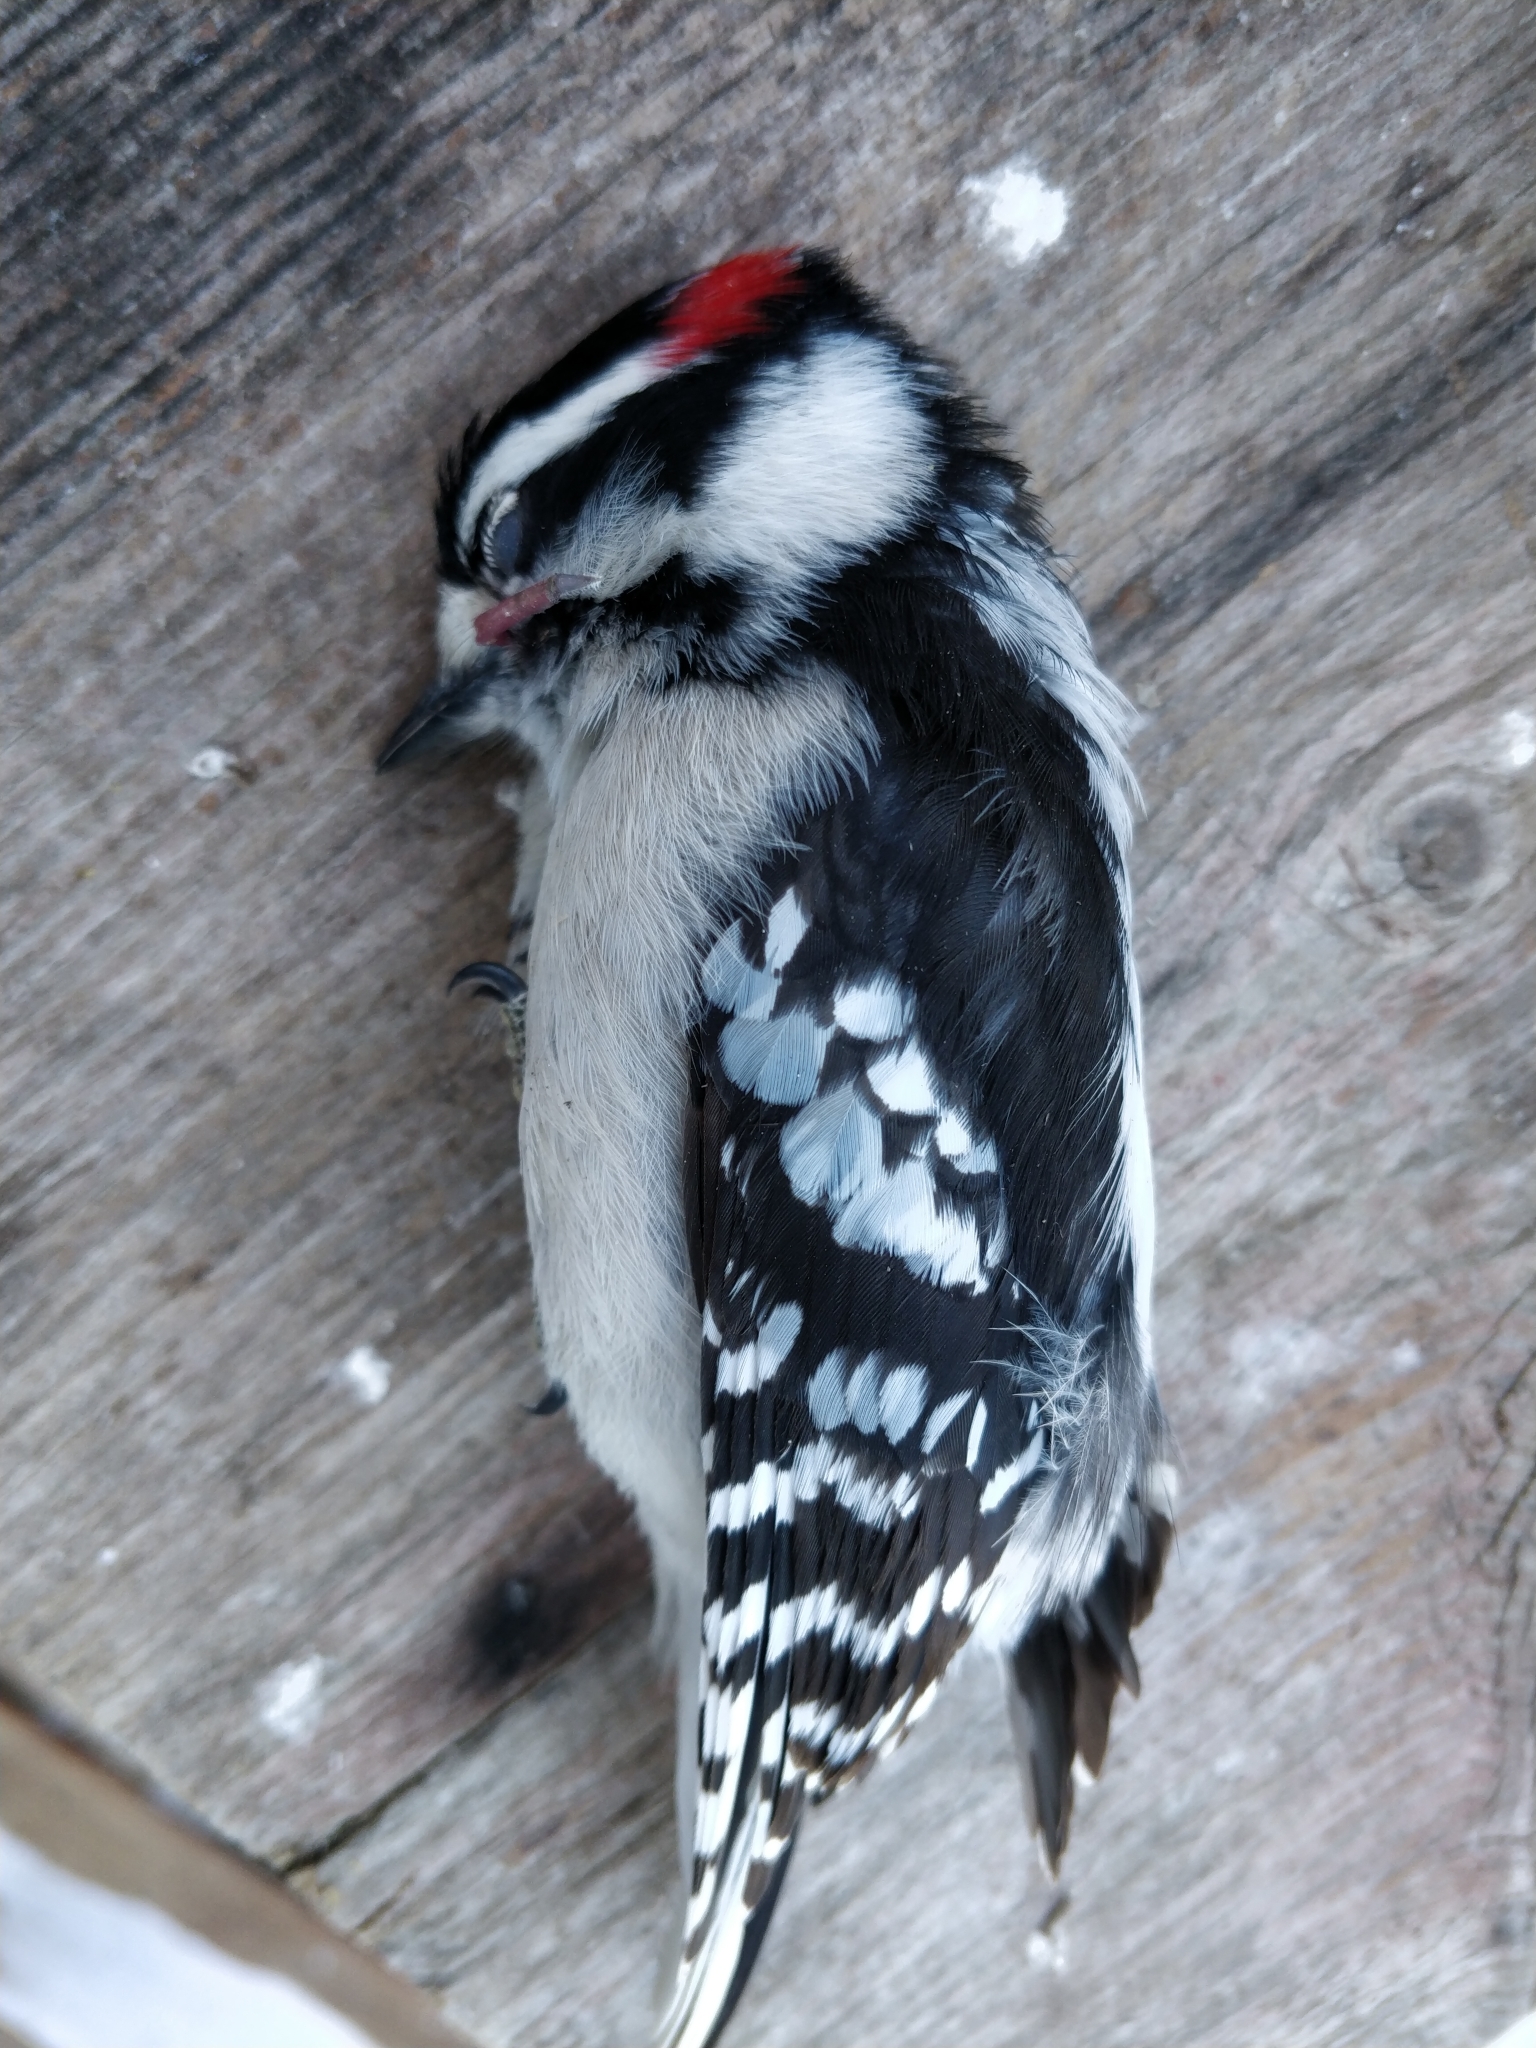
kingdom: Animalia
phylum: Chordata
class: Aves
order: Piciformes
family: Picidae
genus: Dryobates
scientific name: Dryobates pubescens
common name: Downy woodpecker
